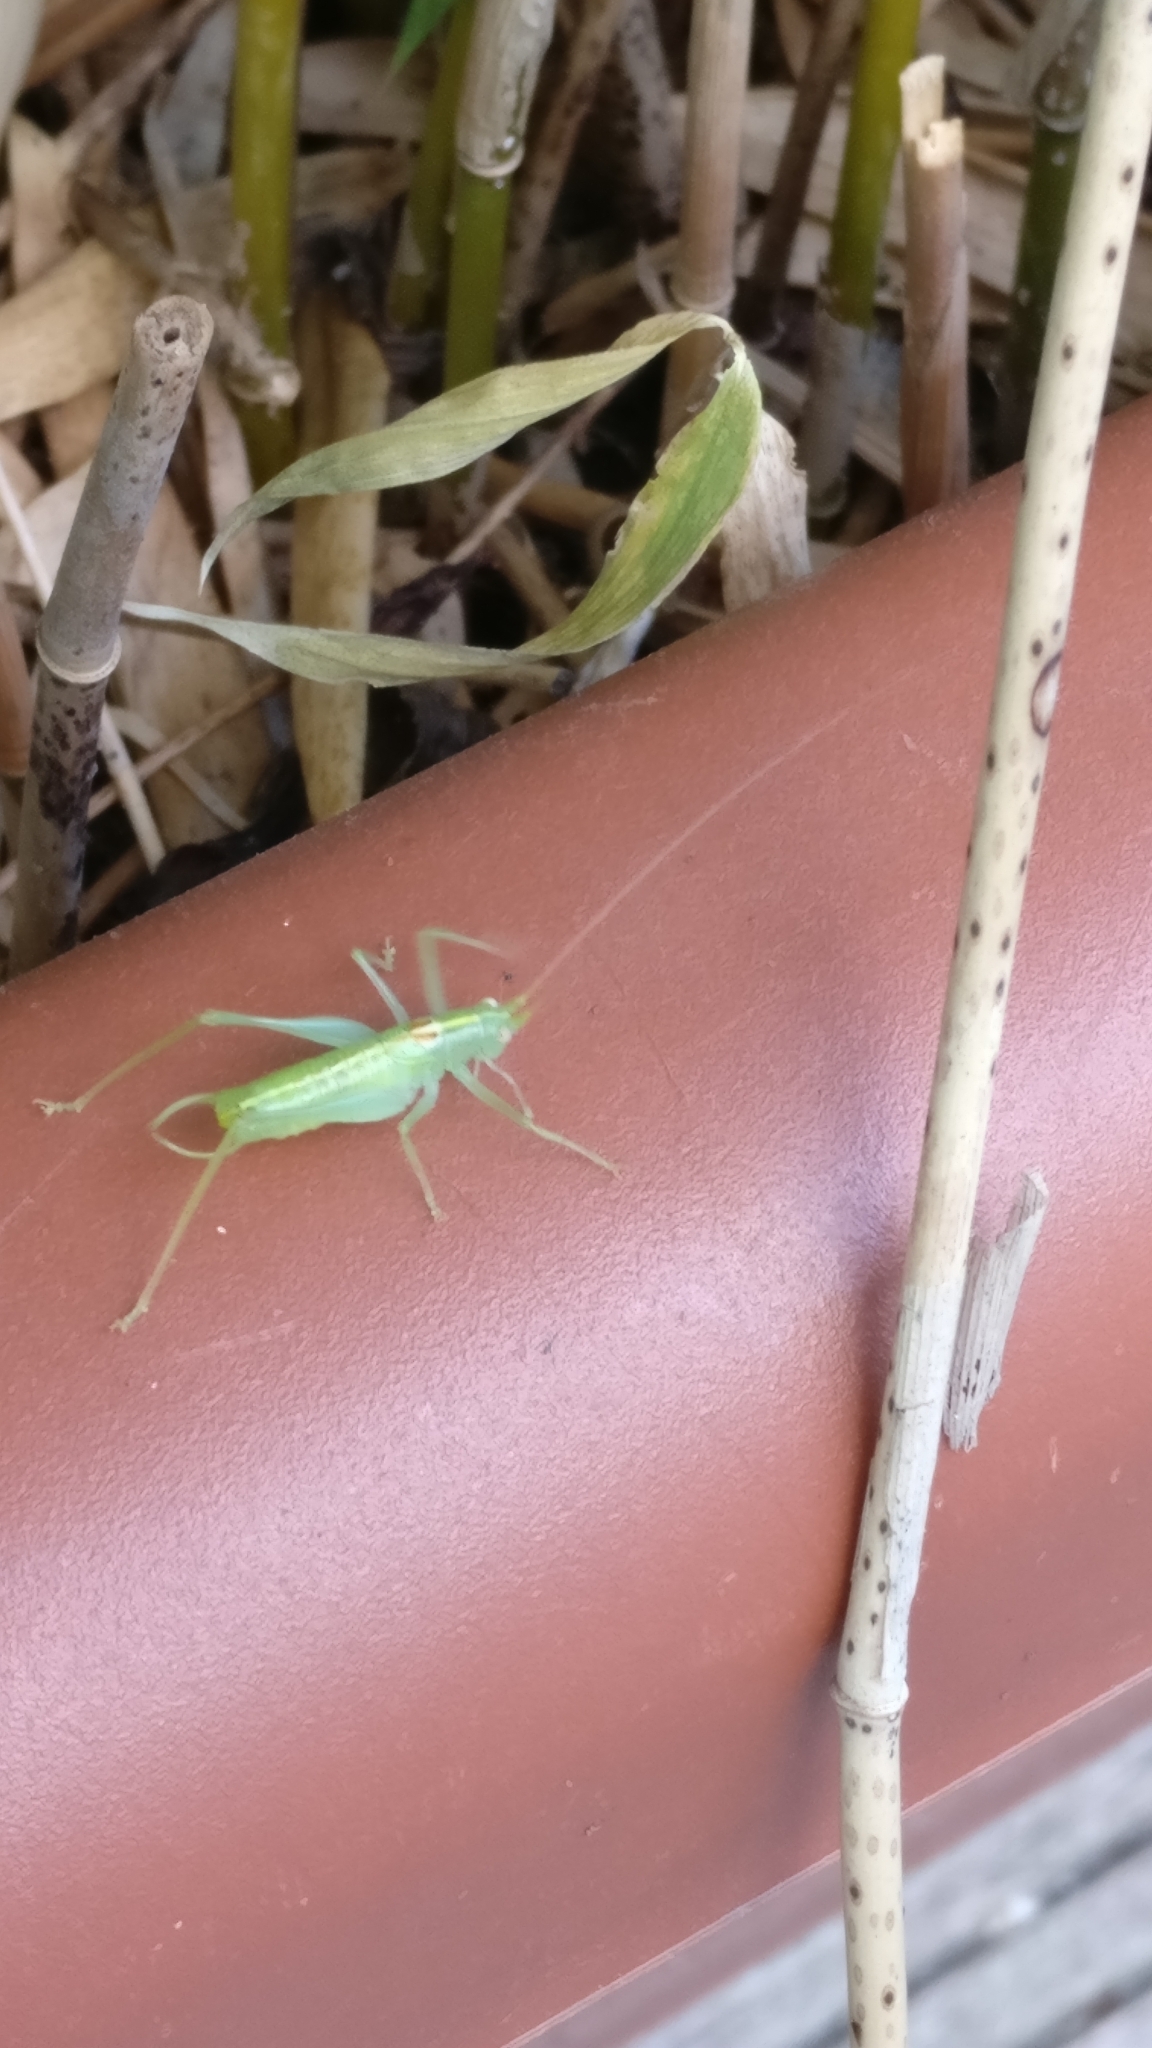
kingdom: Animalia
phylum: Arthropoda
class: Insecta
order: Orthoptera
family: Tettigoniidae
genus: Meconema
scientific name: Meconema meridionale
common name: Southern oak bush-cricket
